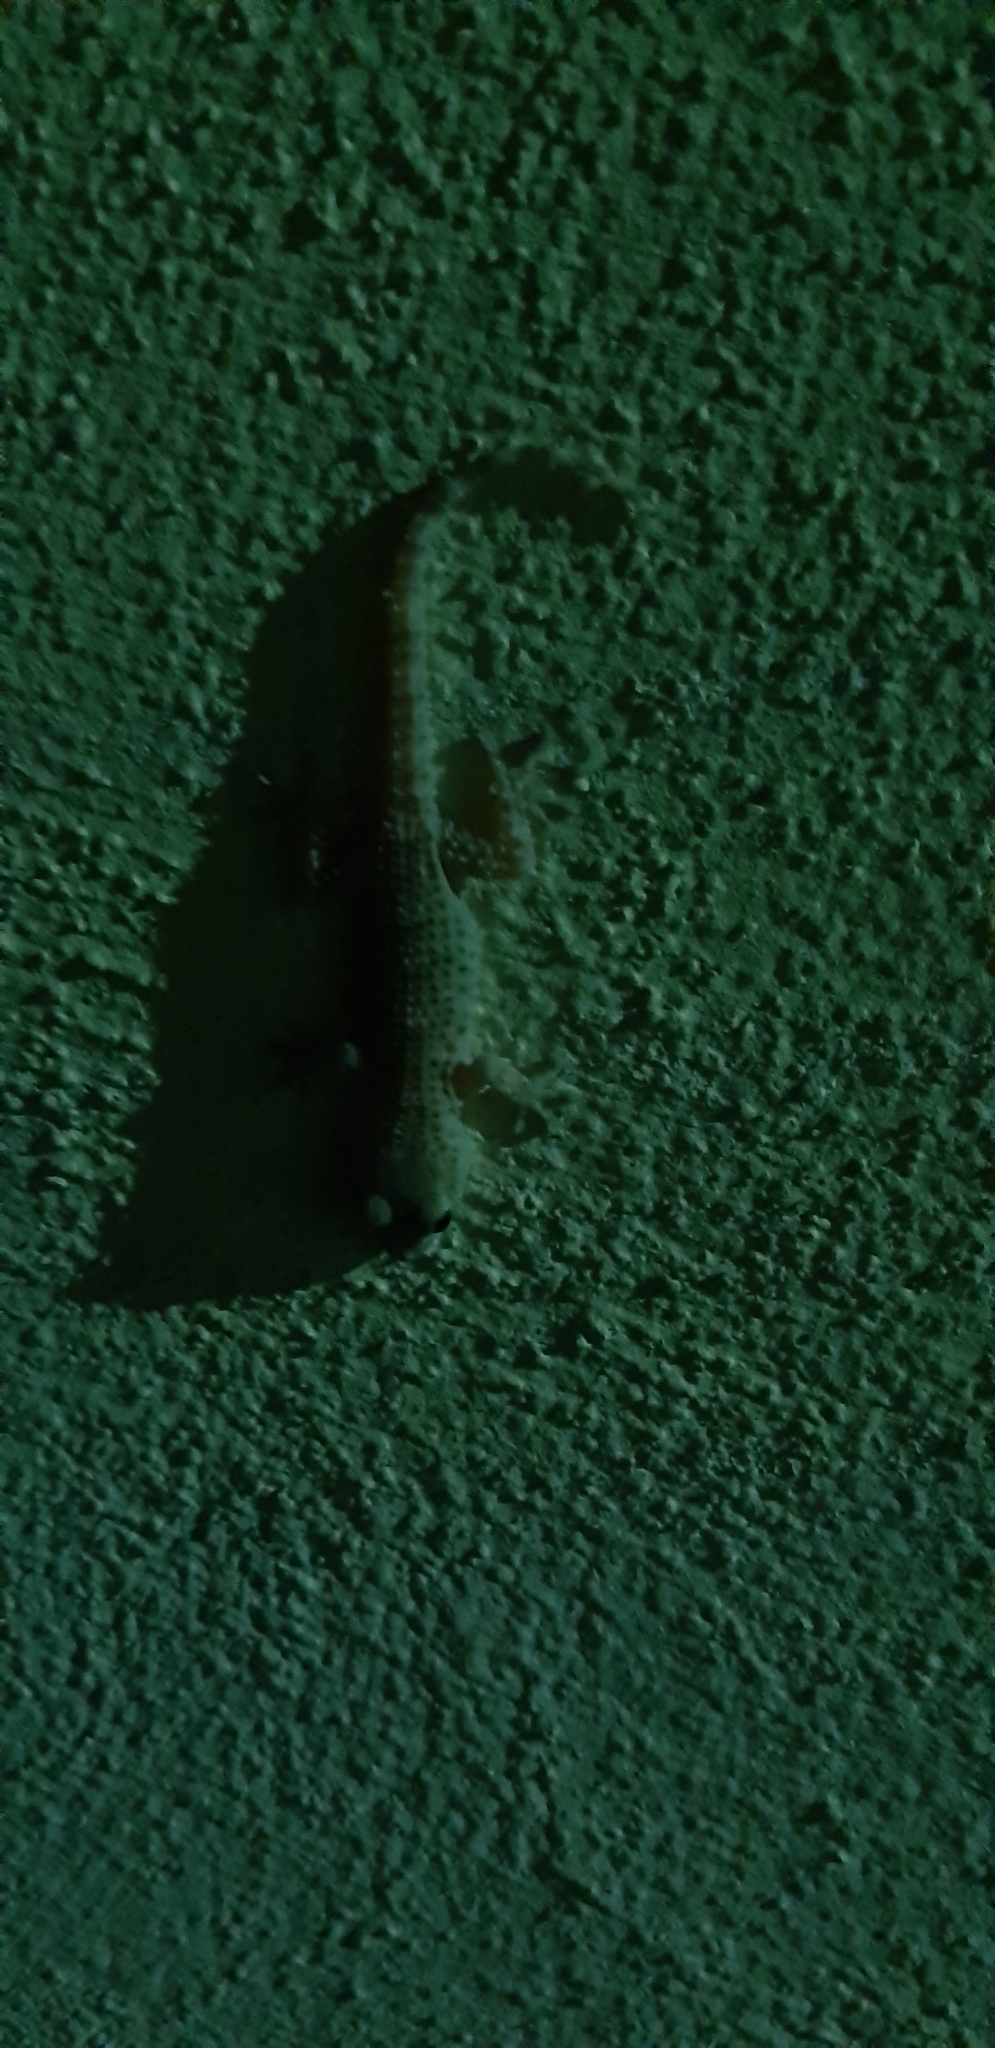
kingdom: Animalia
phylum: Chordata
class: Squamata
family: Phyllodactylidae
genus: Tarentola
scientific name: Tarentola mauritanica
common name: Moorish gecko
